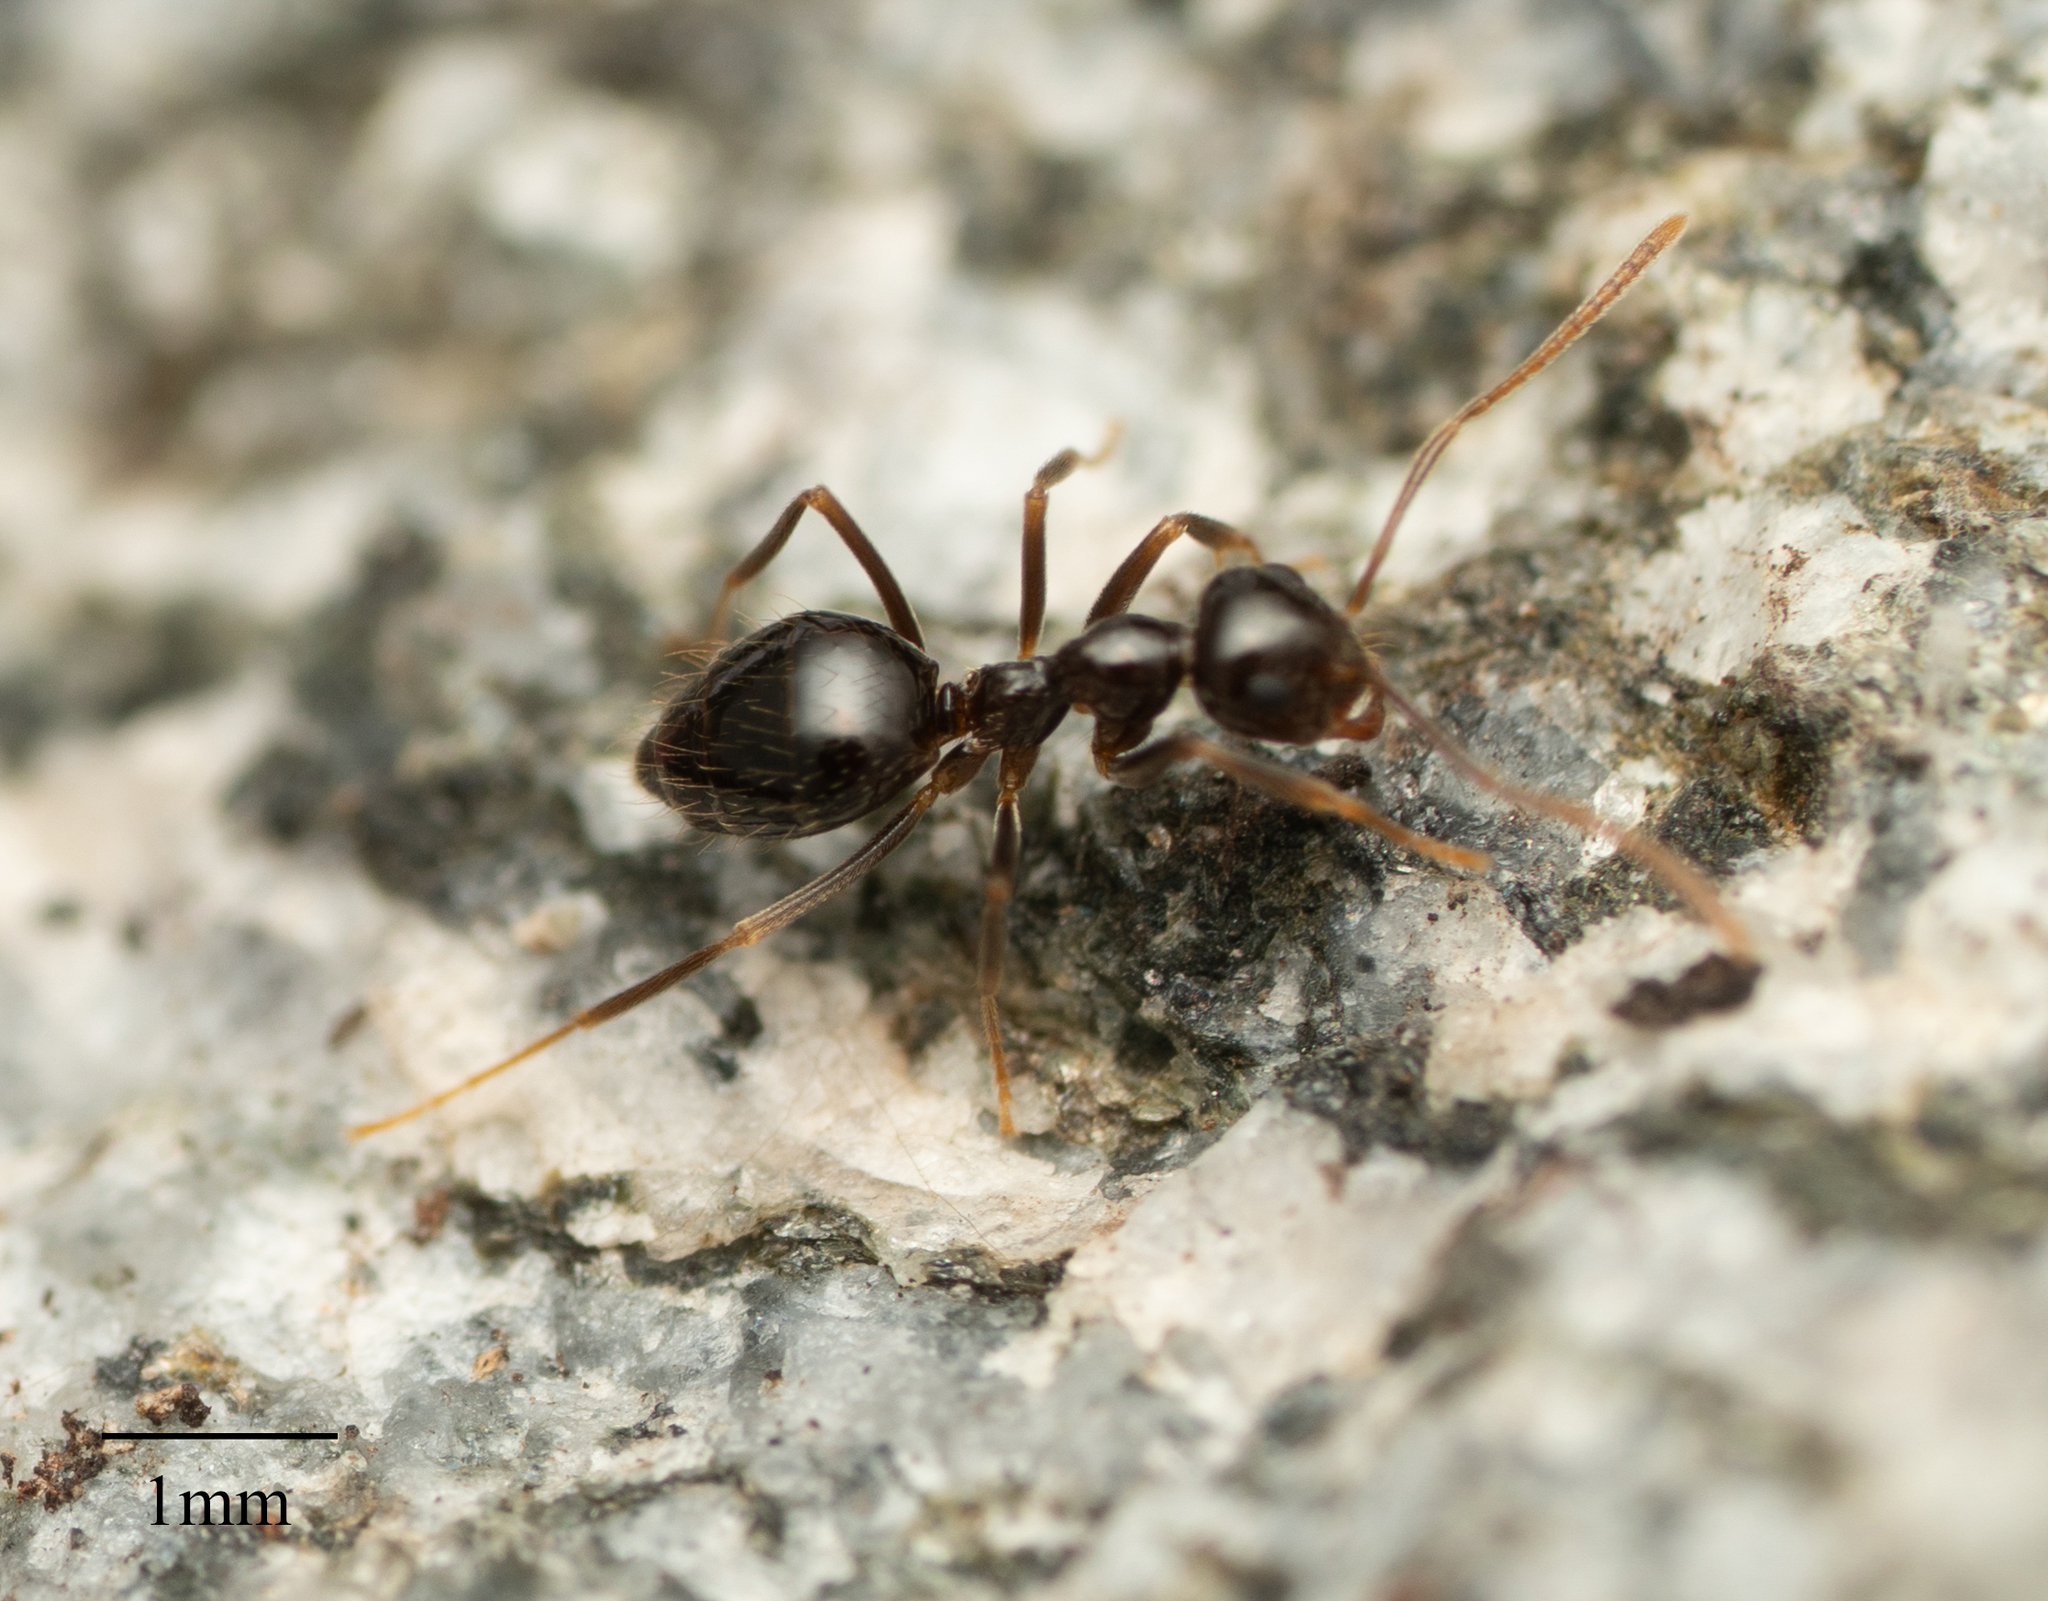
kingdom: Animalia
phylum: Arthropoda
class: Insecta
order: Hymenoptera
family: Formicidae
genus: Prenolepis
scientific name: Prenolepis imparis
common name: Small honey ant
